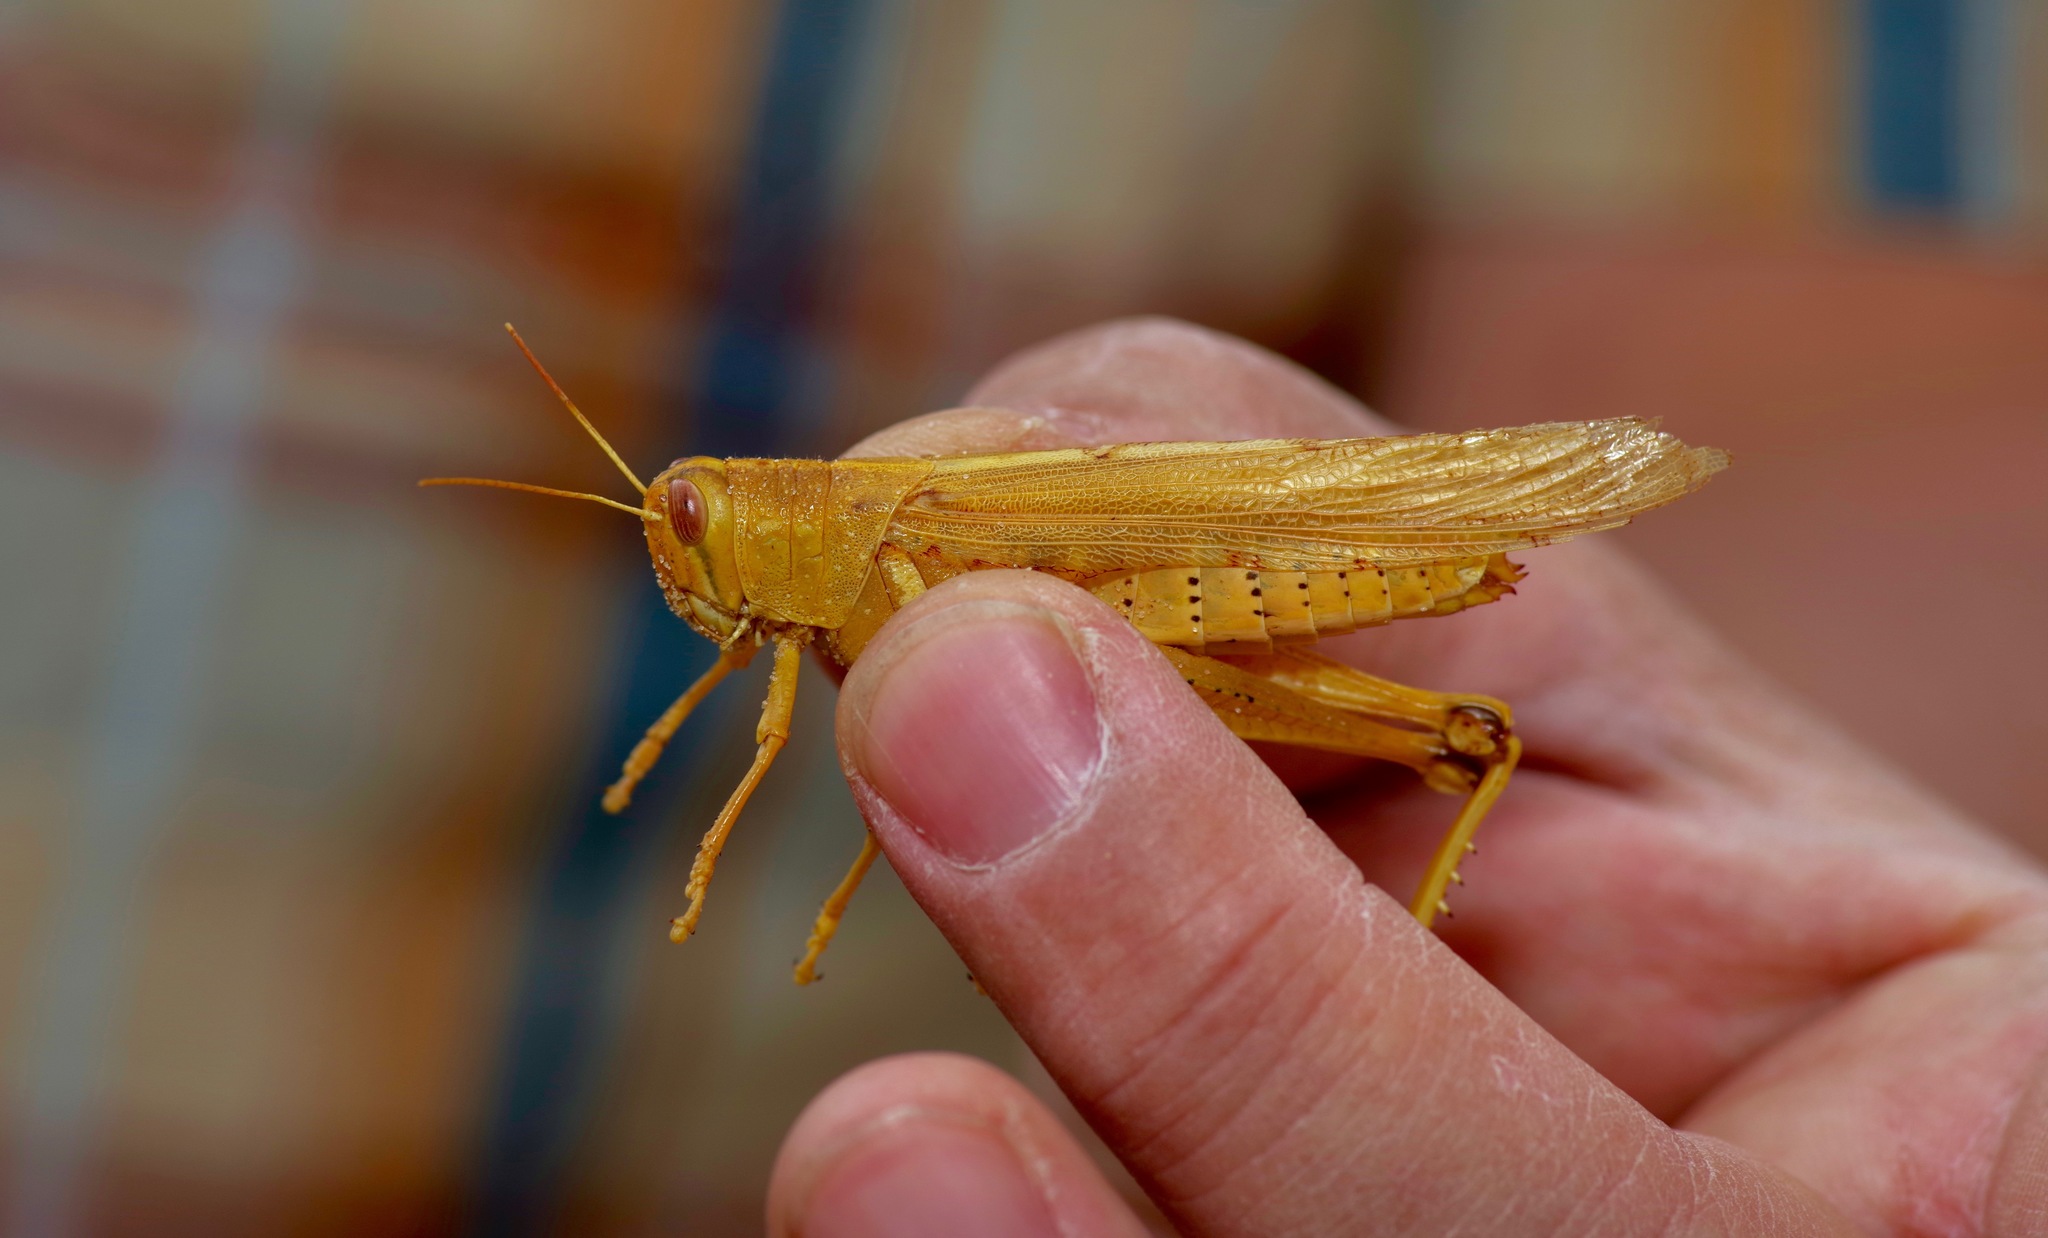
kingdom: Animalia
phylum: Arthropoda
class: Insecta
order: Orthoptera
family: Acrididae
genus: Schistocerca
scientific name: Schistocerca lineata
